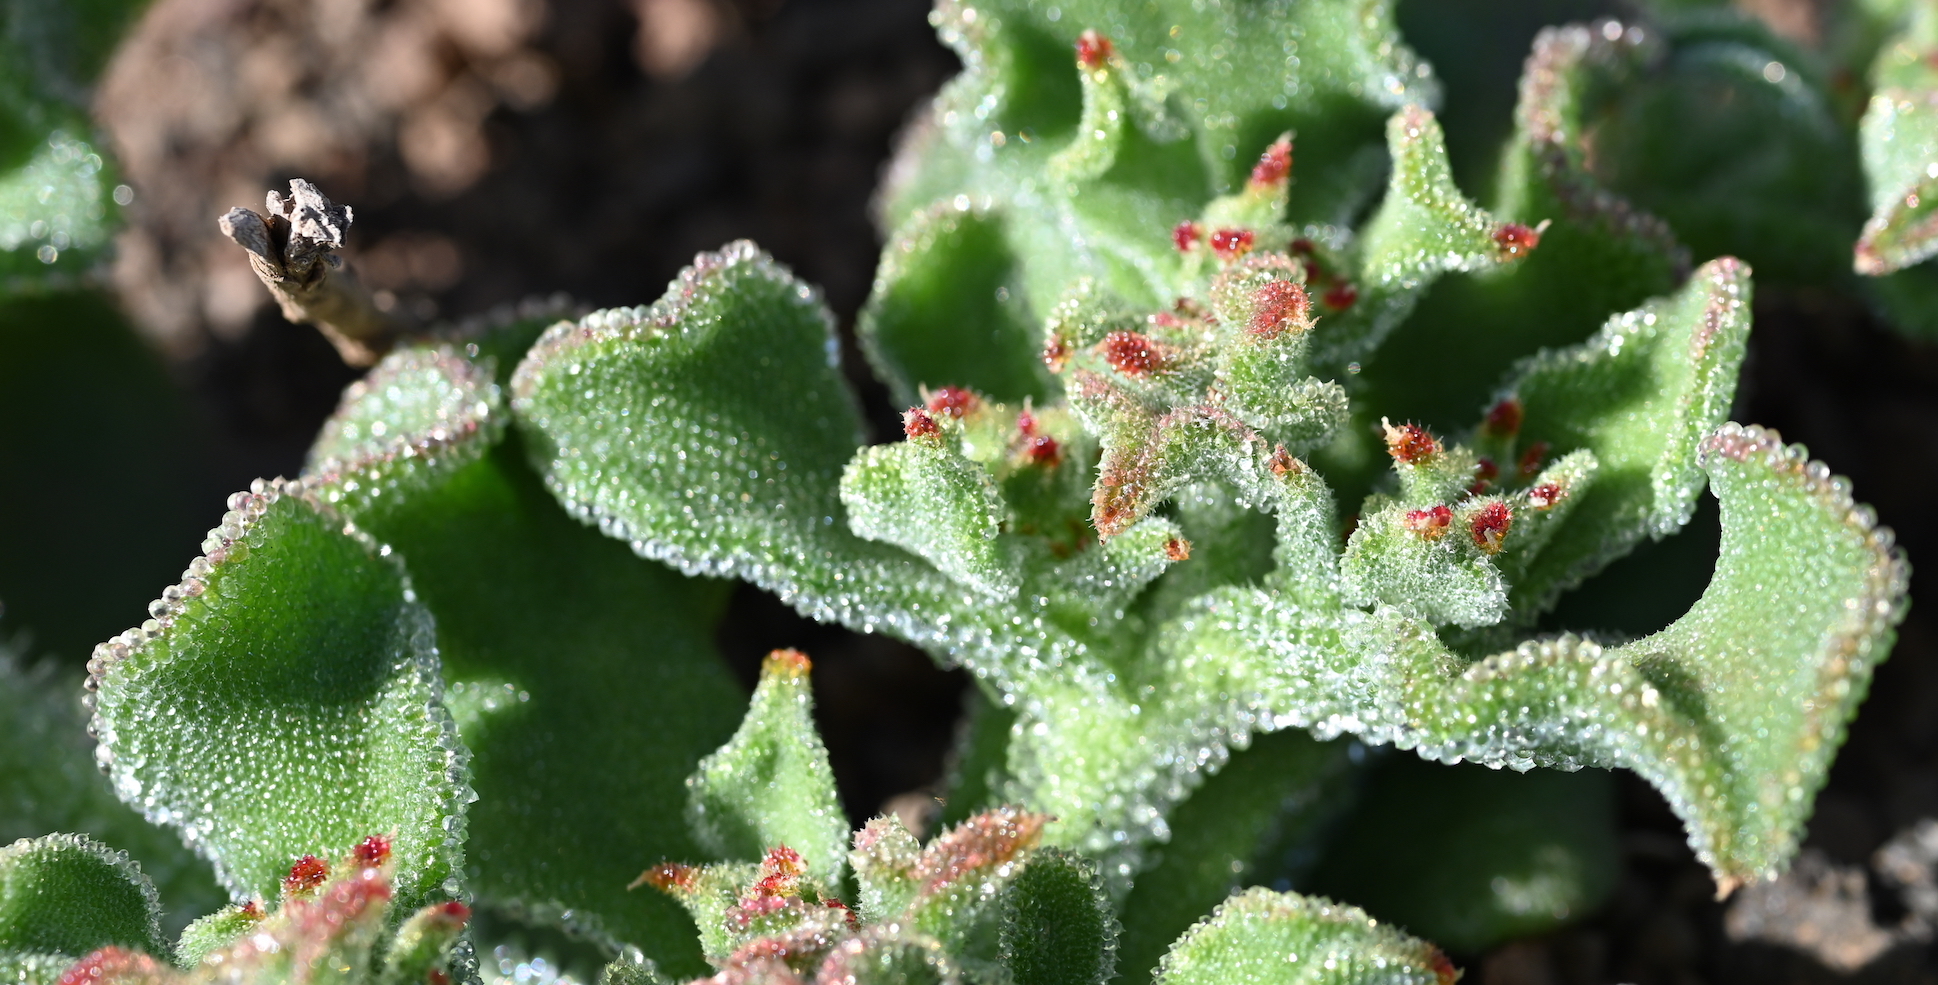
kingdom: Plantae
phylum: Tracheophyta
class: Magnoliopsida
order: Caryophyllales
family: Aizoaceae
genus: Mesembryanthemum
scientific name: Mesembryanthemum crystallinum
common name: Common iceplant
